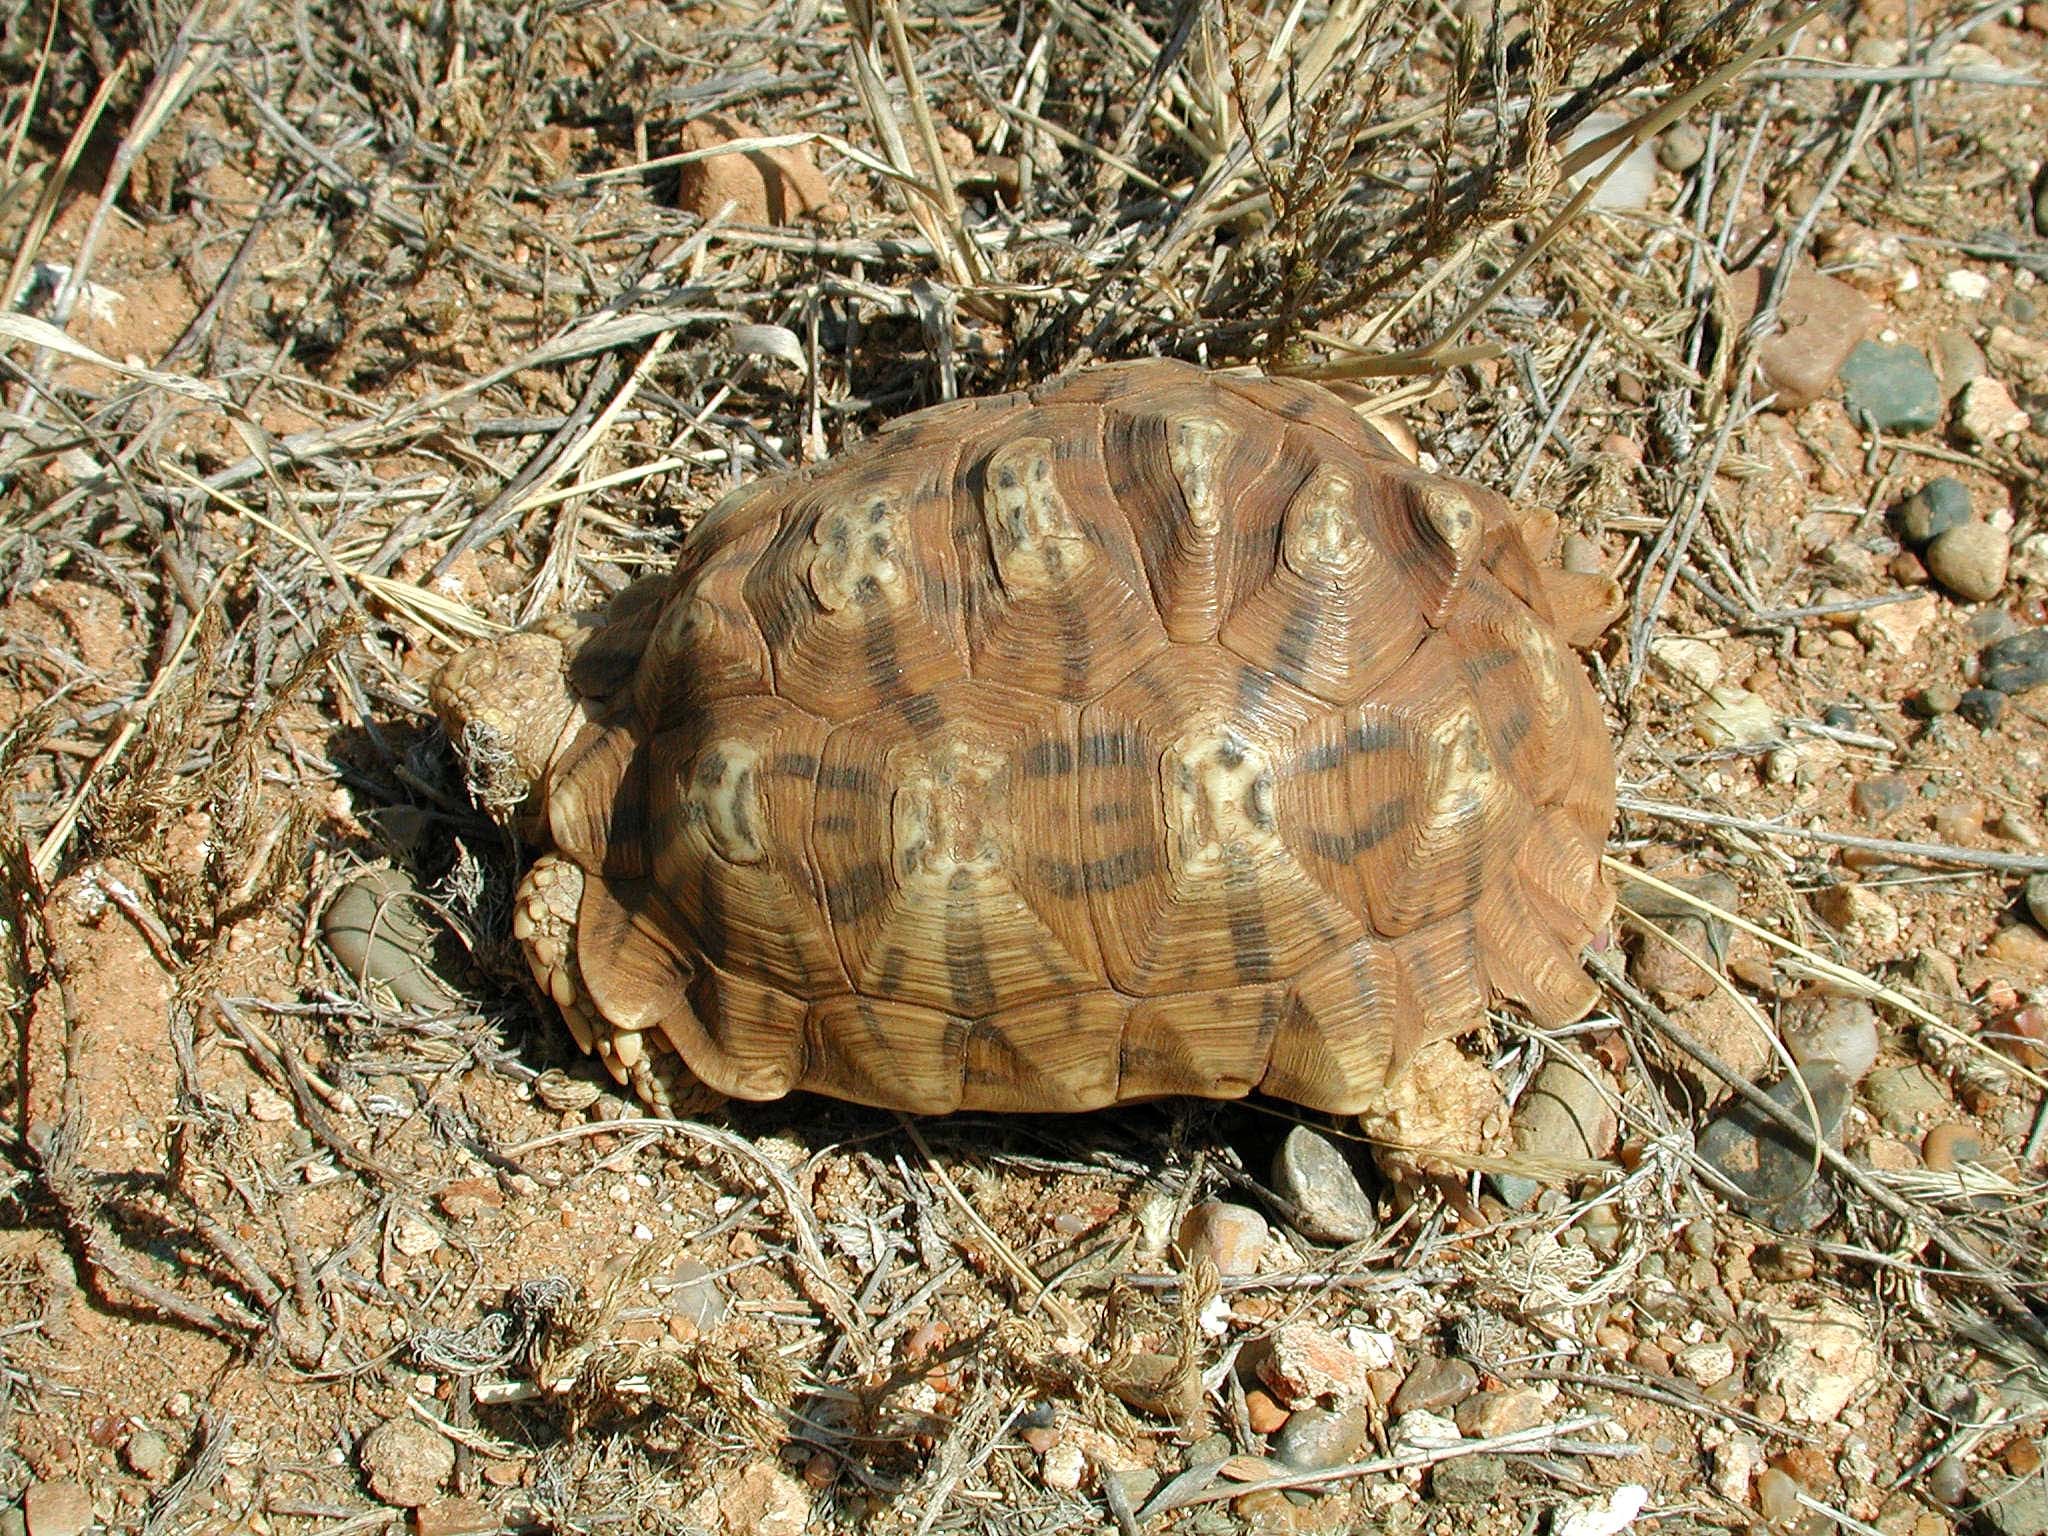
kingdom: Animalia
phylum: Chordata
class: Testudines
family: Testudinidae
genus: Psammobates
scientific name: Psammobates oculifer
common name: Serrated tortoise
